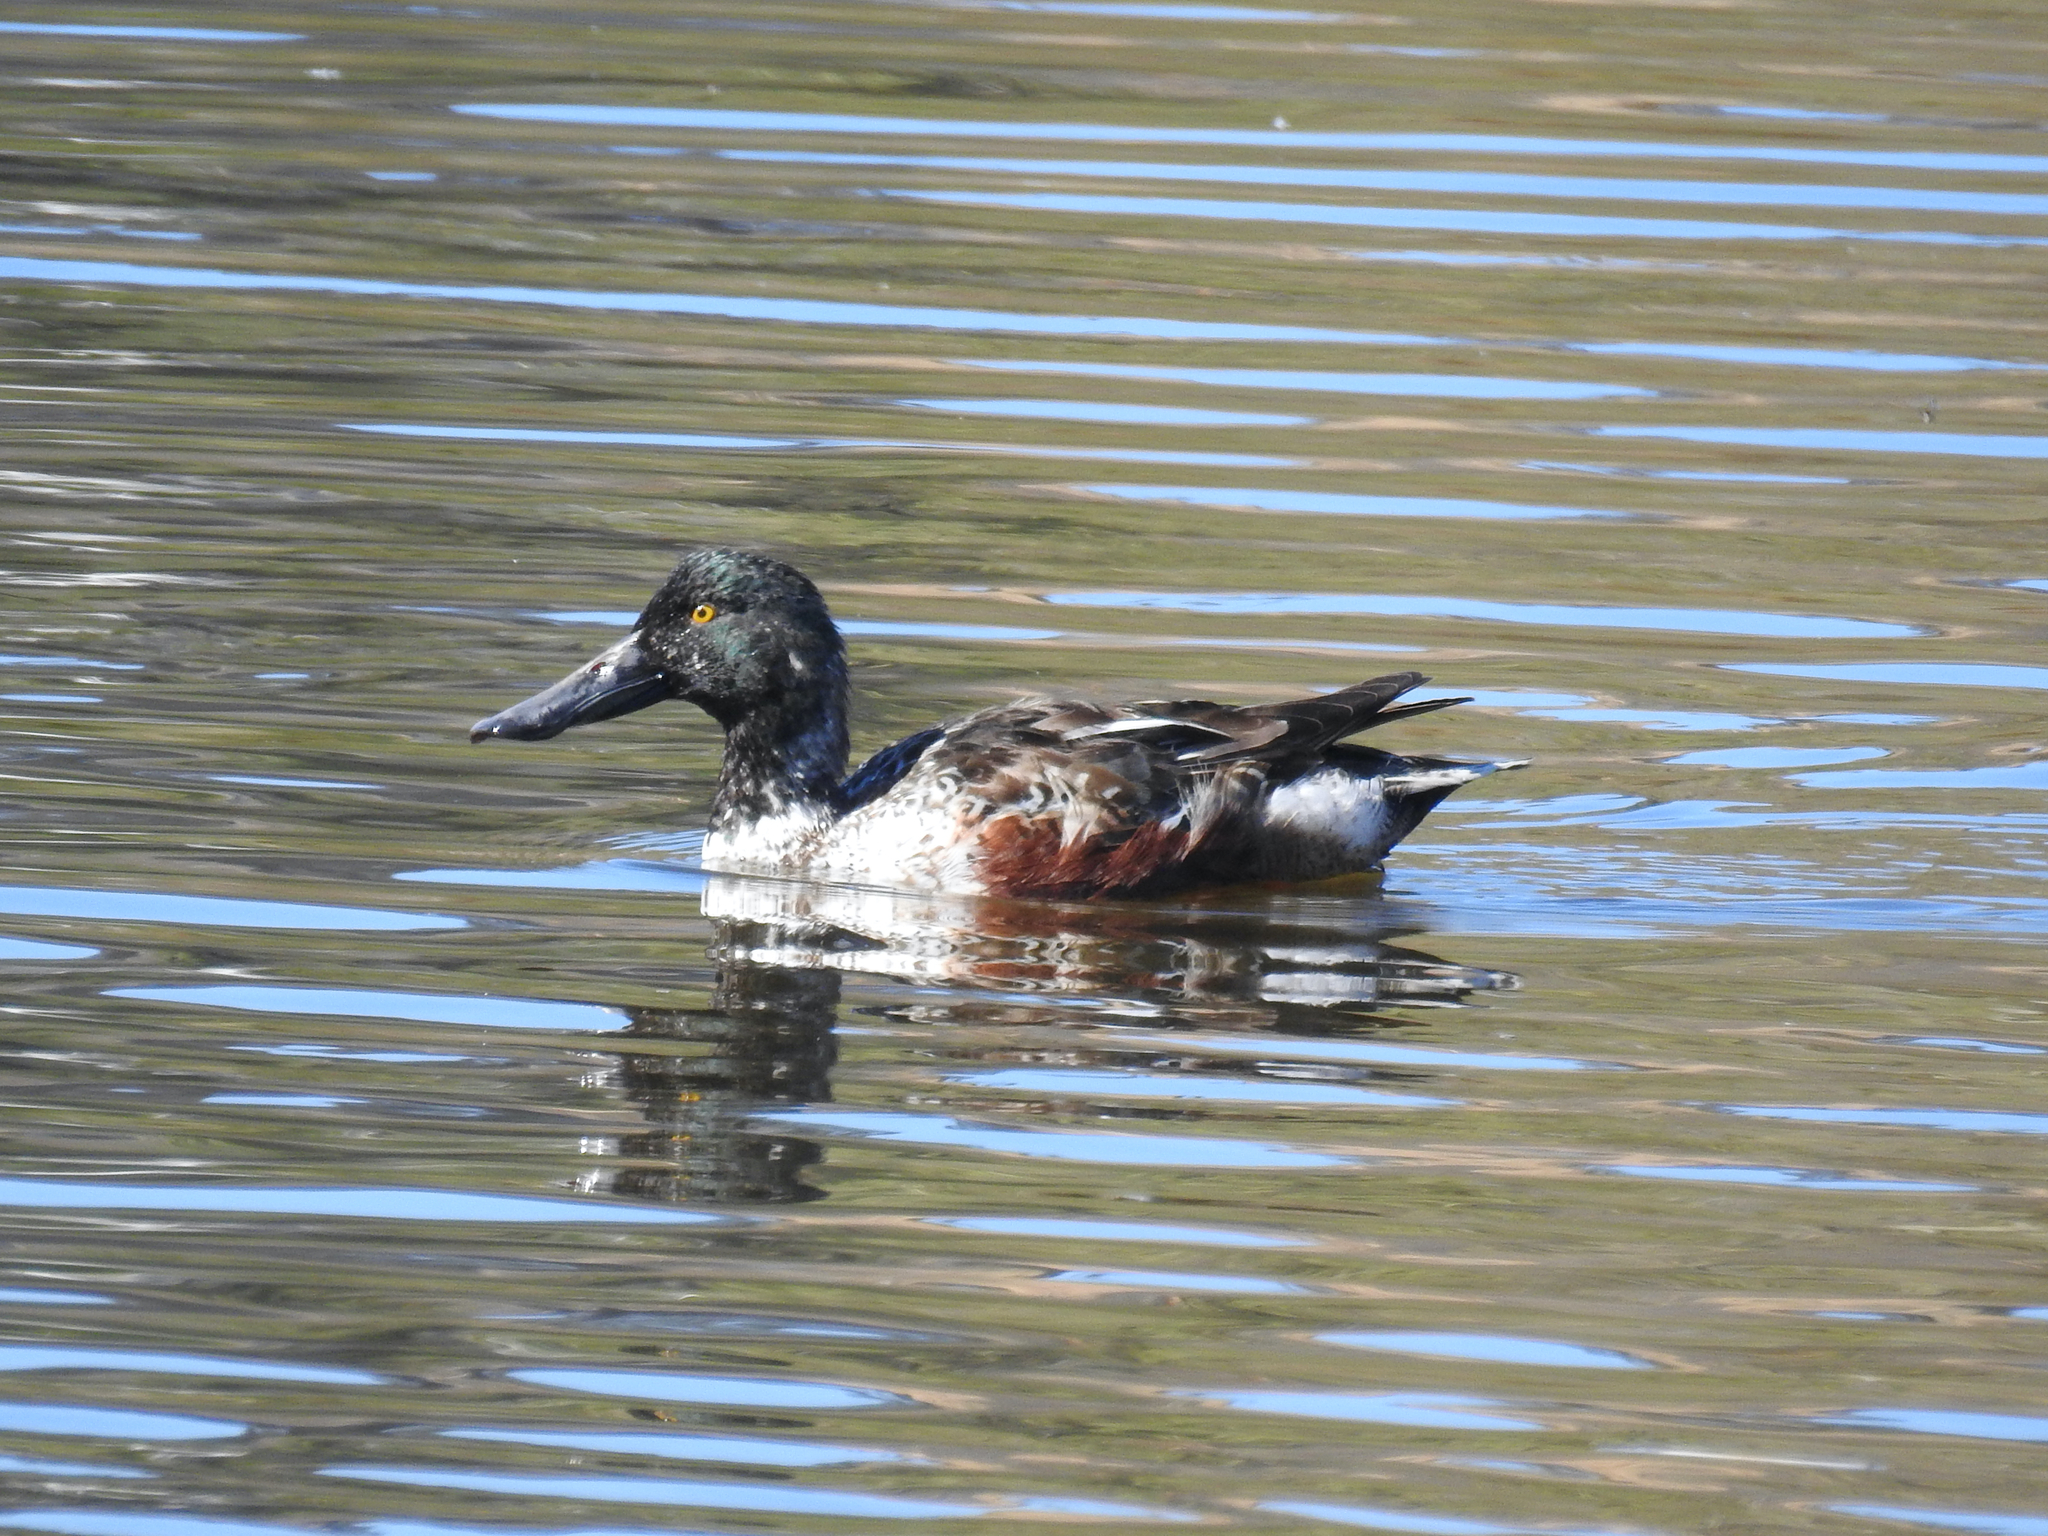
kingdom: Animalia
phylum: Chordata
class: Aves
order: Anseriformes
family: Anatidae
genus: Spatula
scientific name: Spatula clypeata
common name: Northern shoveler
